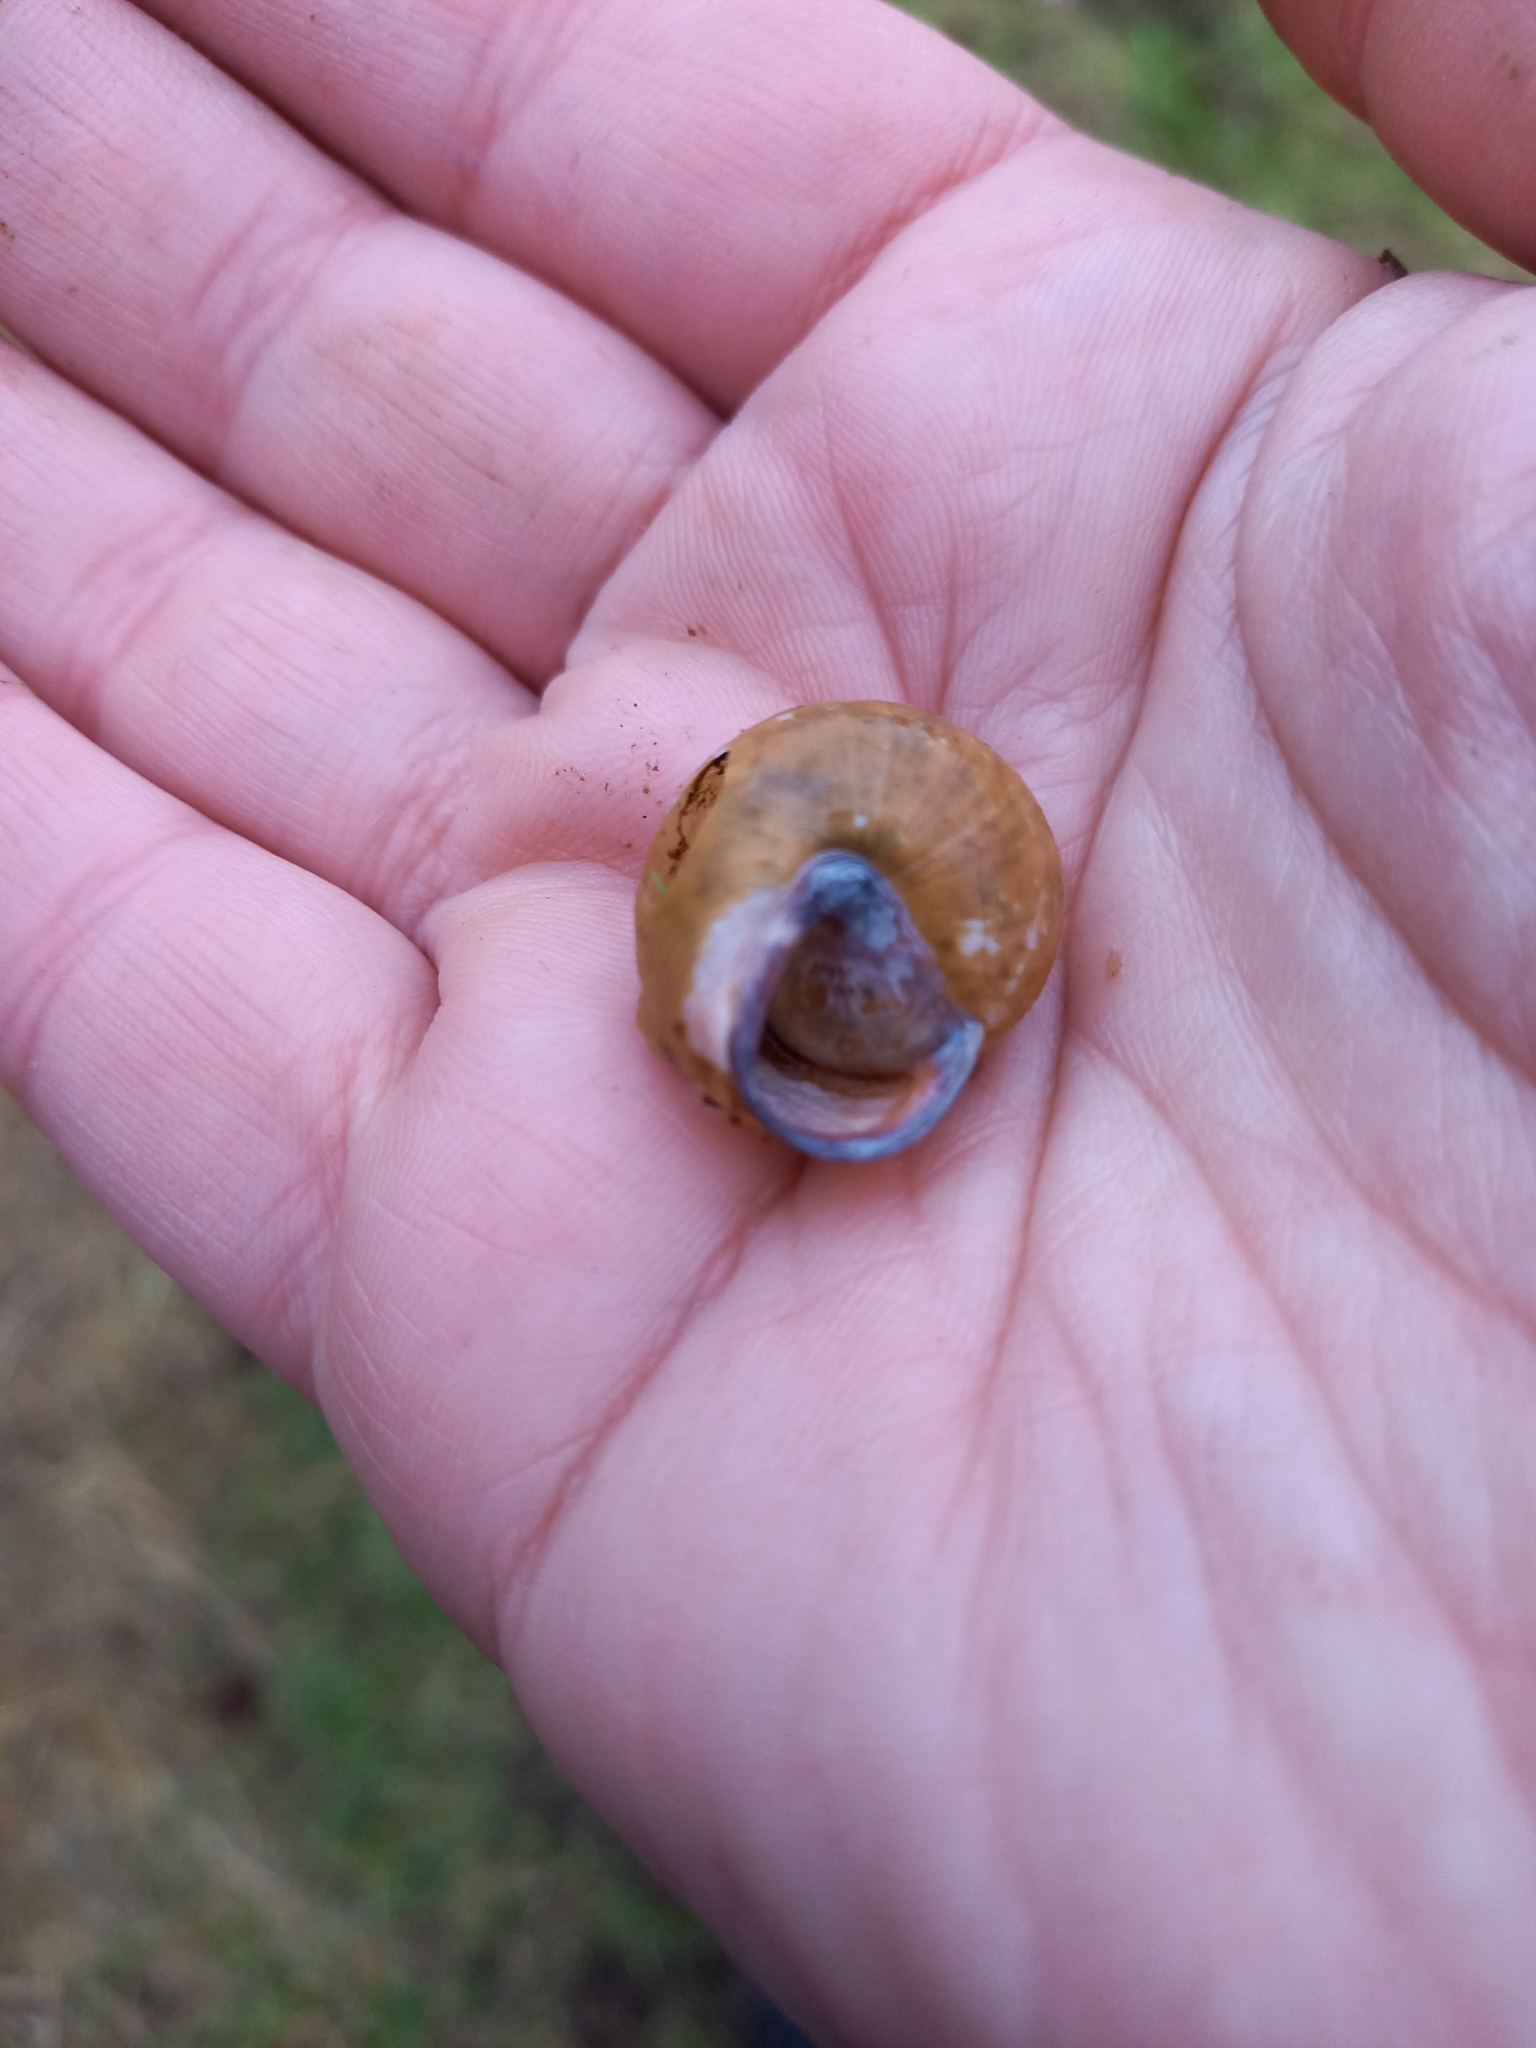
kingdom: Animalia
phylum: Mollusca
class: Gastropoda
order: Stylommatophora
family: Helicidae
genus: Cepaea
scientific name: Cepaea nemoralis
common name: Grovesnail
